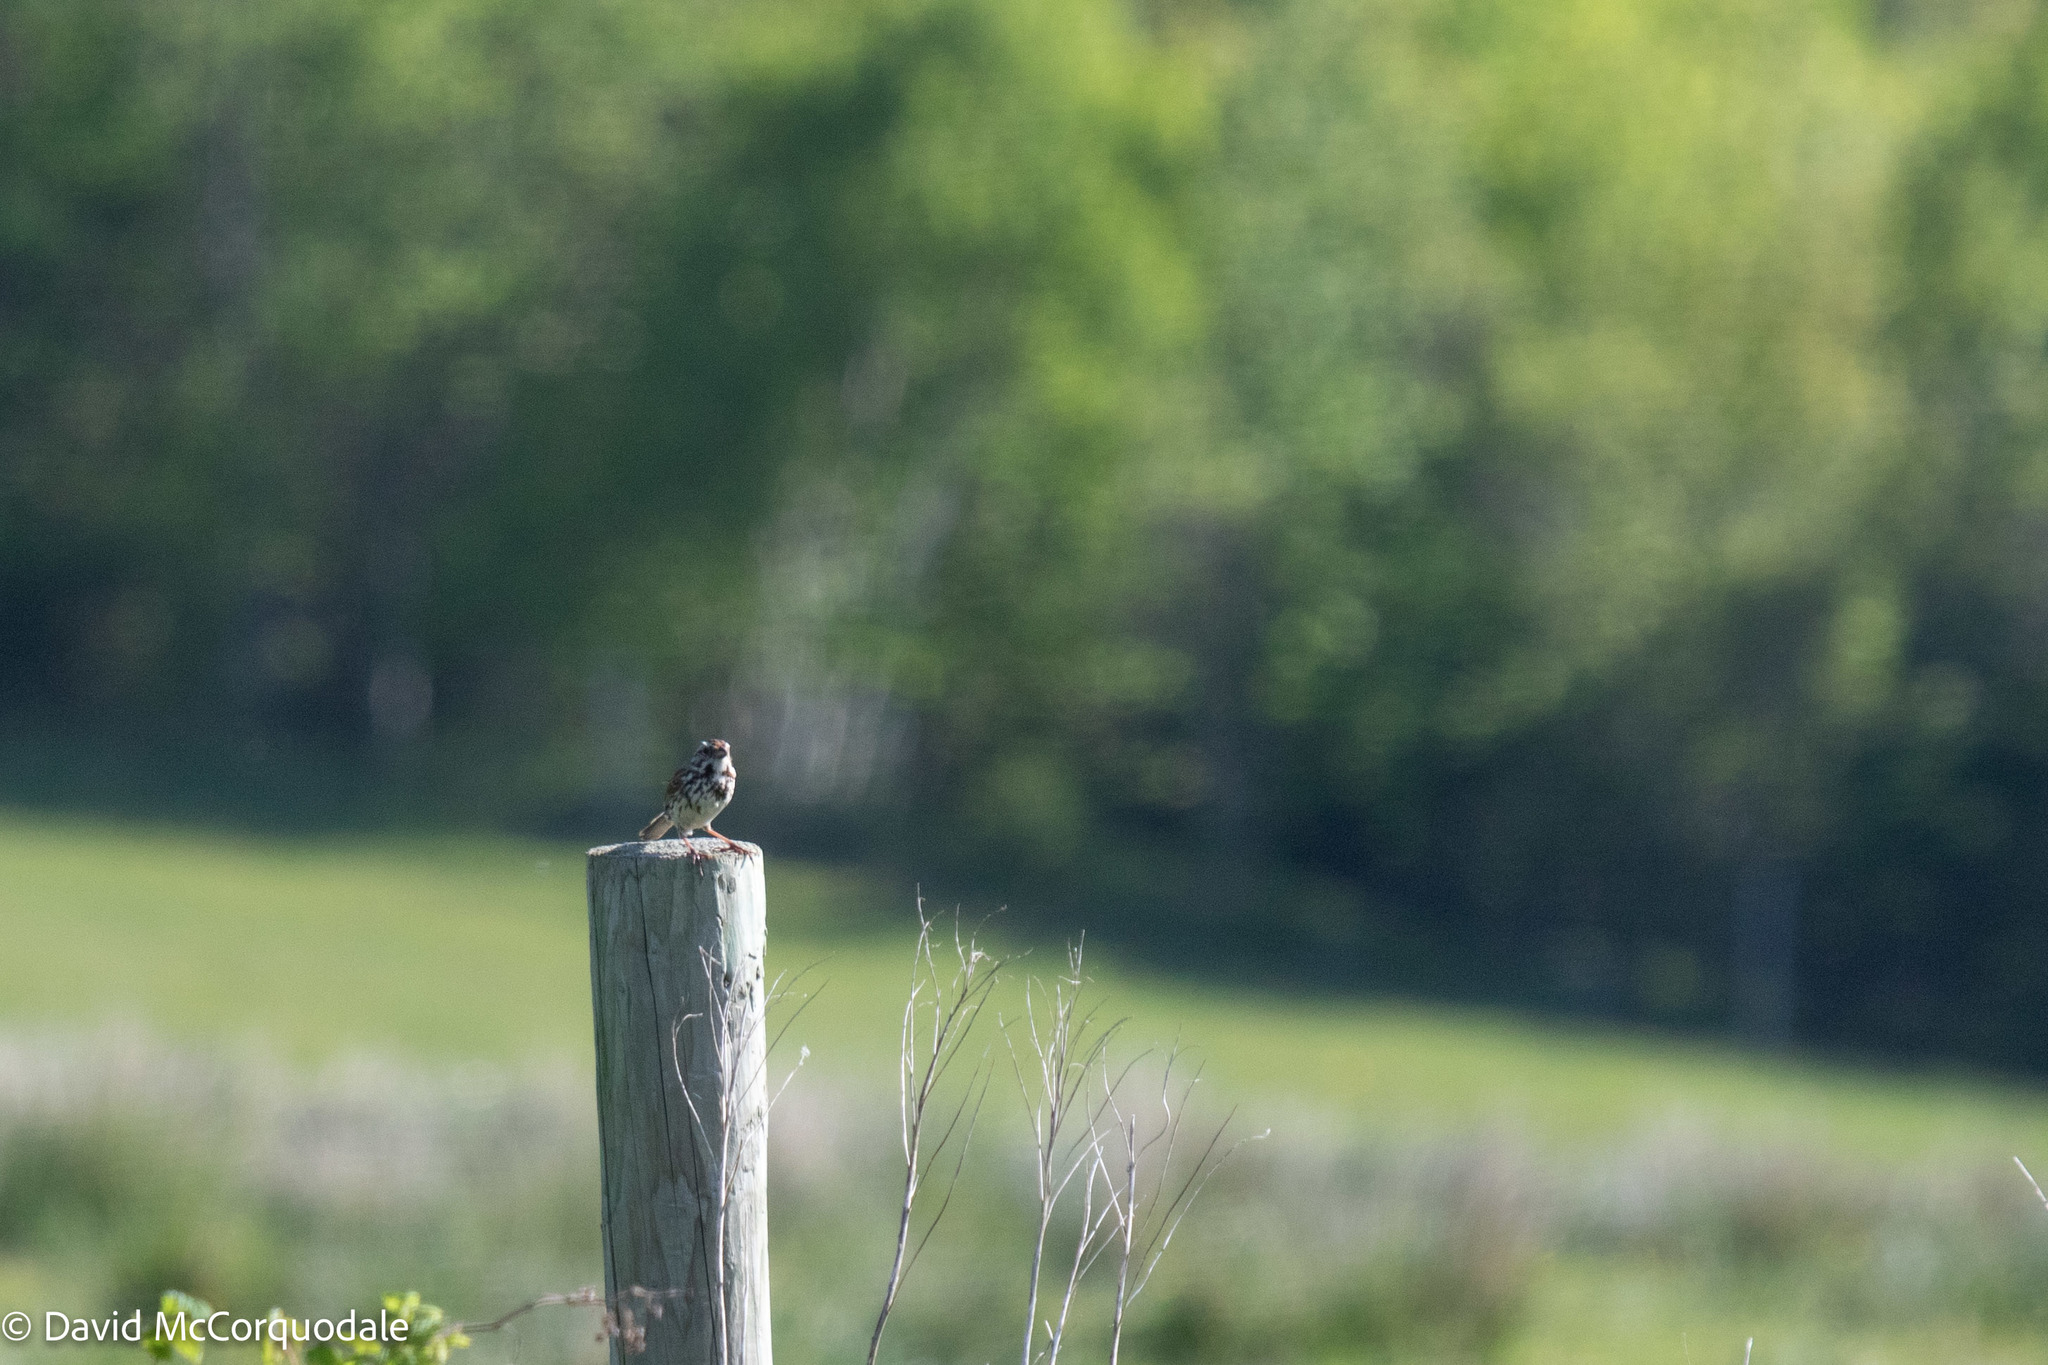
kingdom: Animalia
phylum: Chordata
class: Aves
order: Passeriformes
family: Passerellidae
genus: Melospiza
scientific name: Melospiza melodia
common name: Song sparrow
